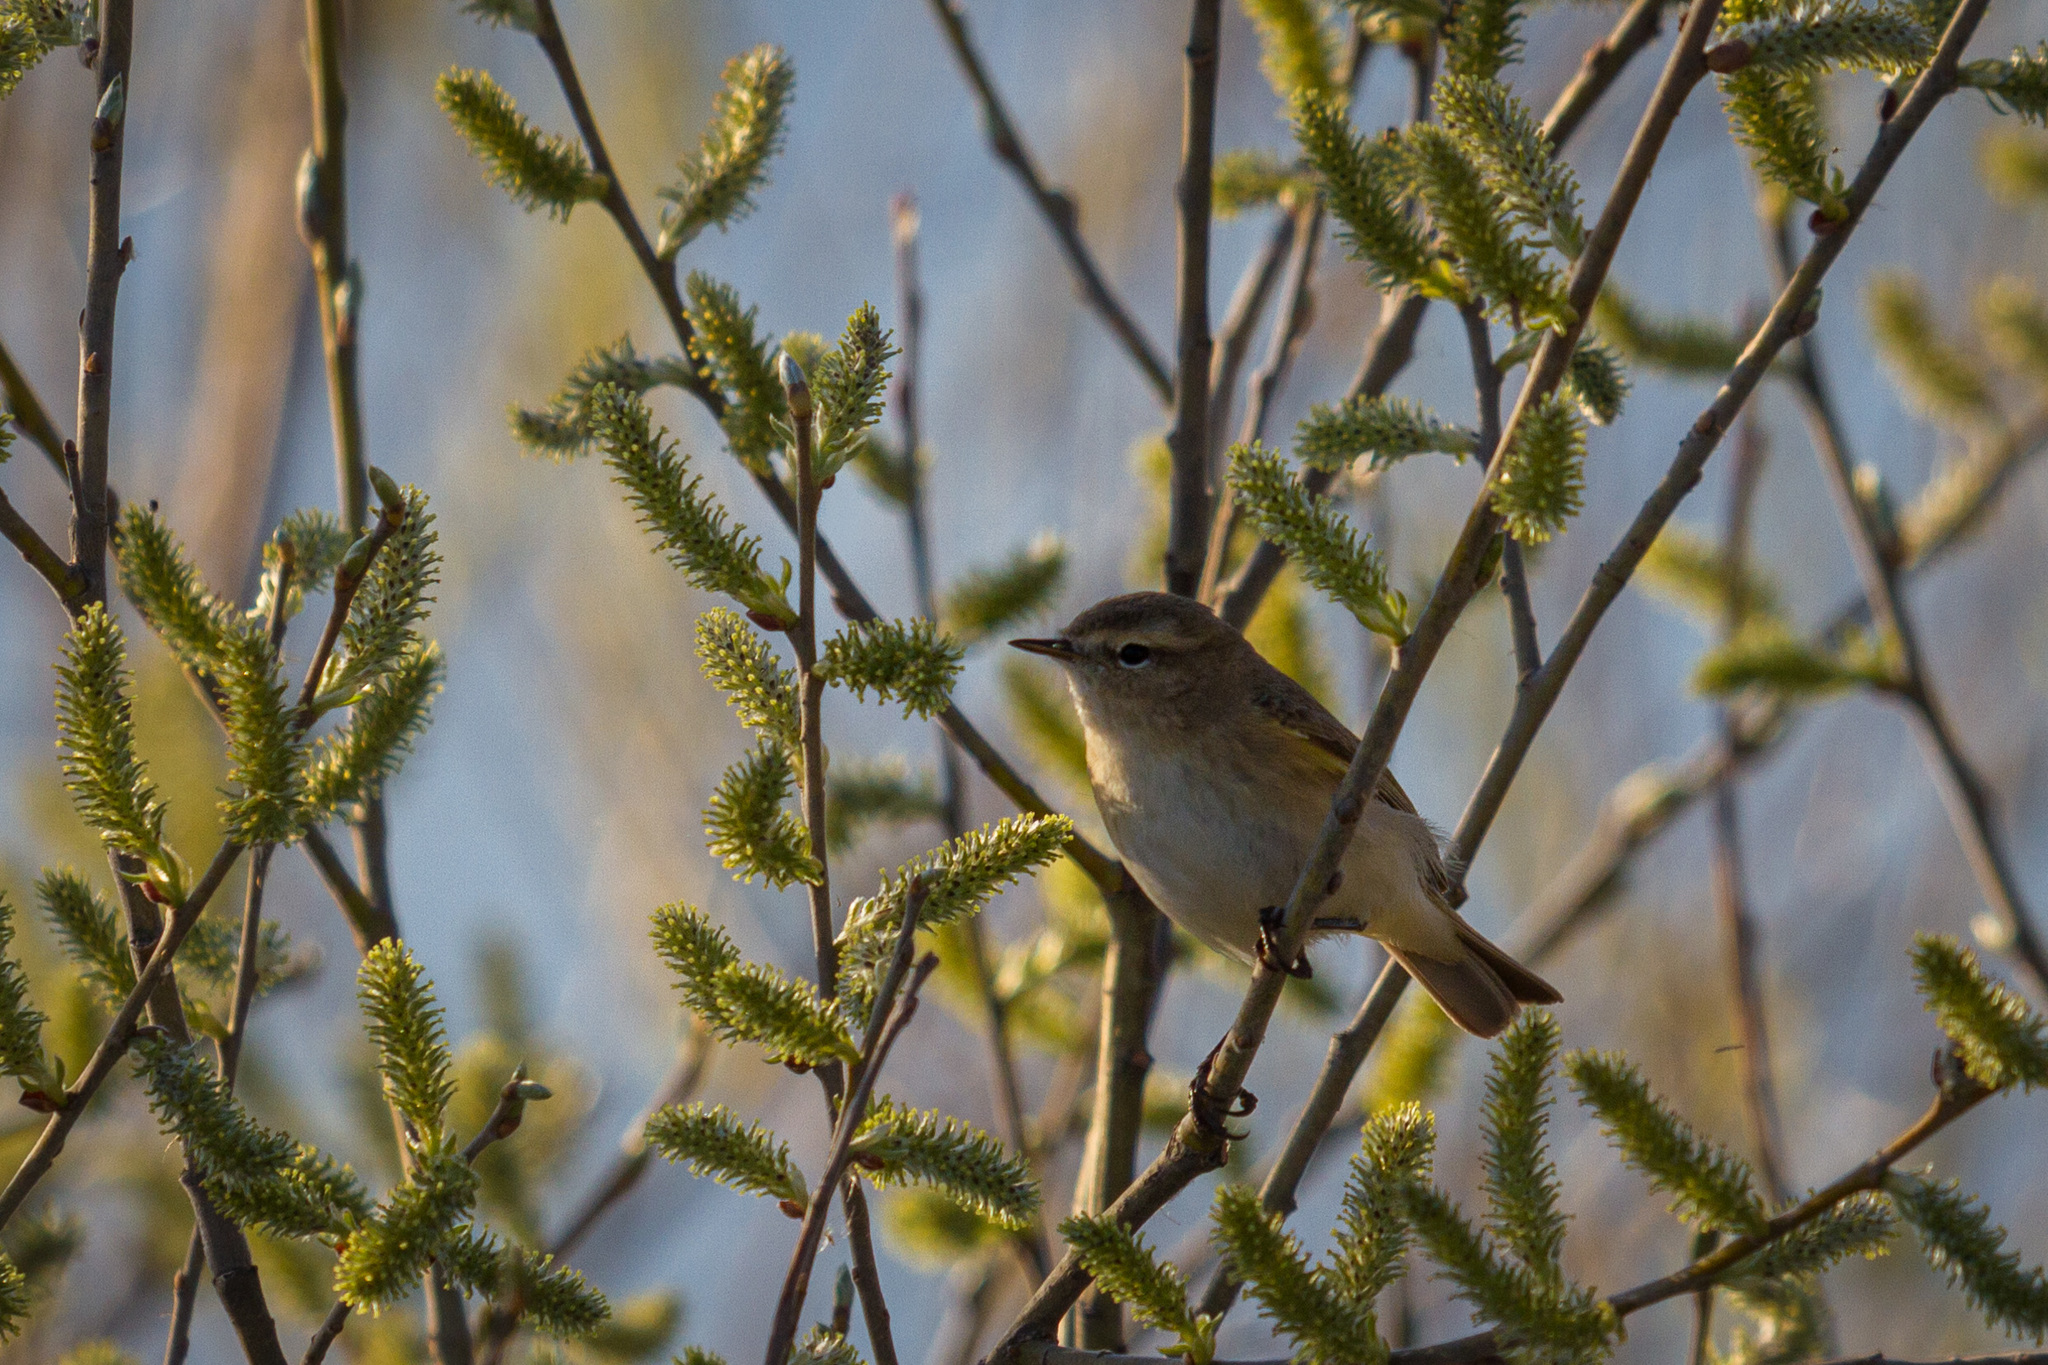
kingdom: Animalia
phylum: Chordata
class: Aves
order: Passeriformes
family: Phylloscopidae
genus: Phylloscopus
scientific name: Phylloscopus collybita
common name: Common chiffchaff
